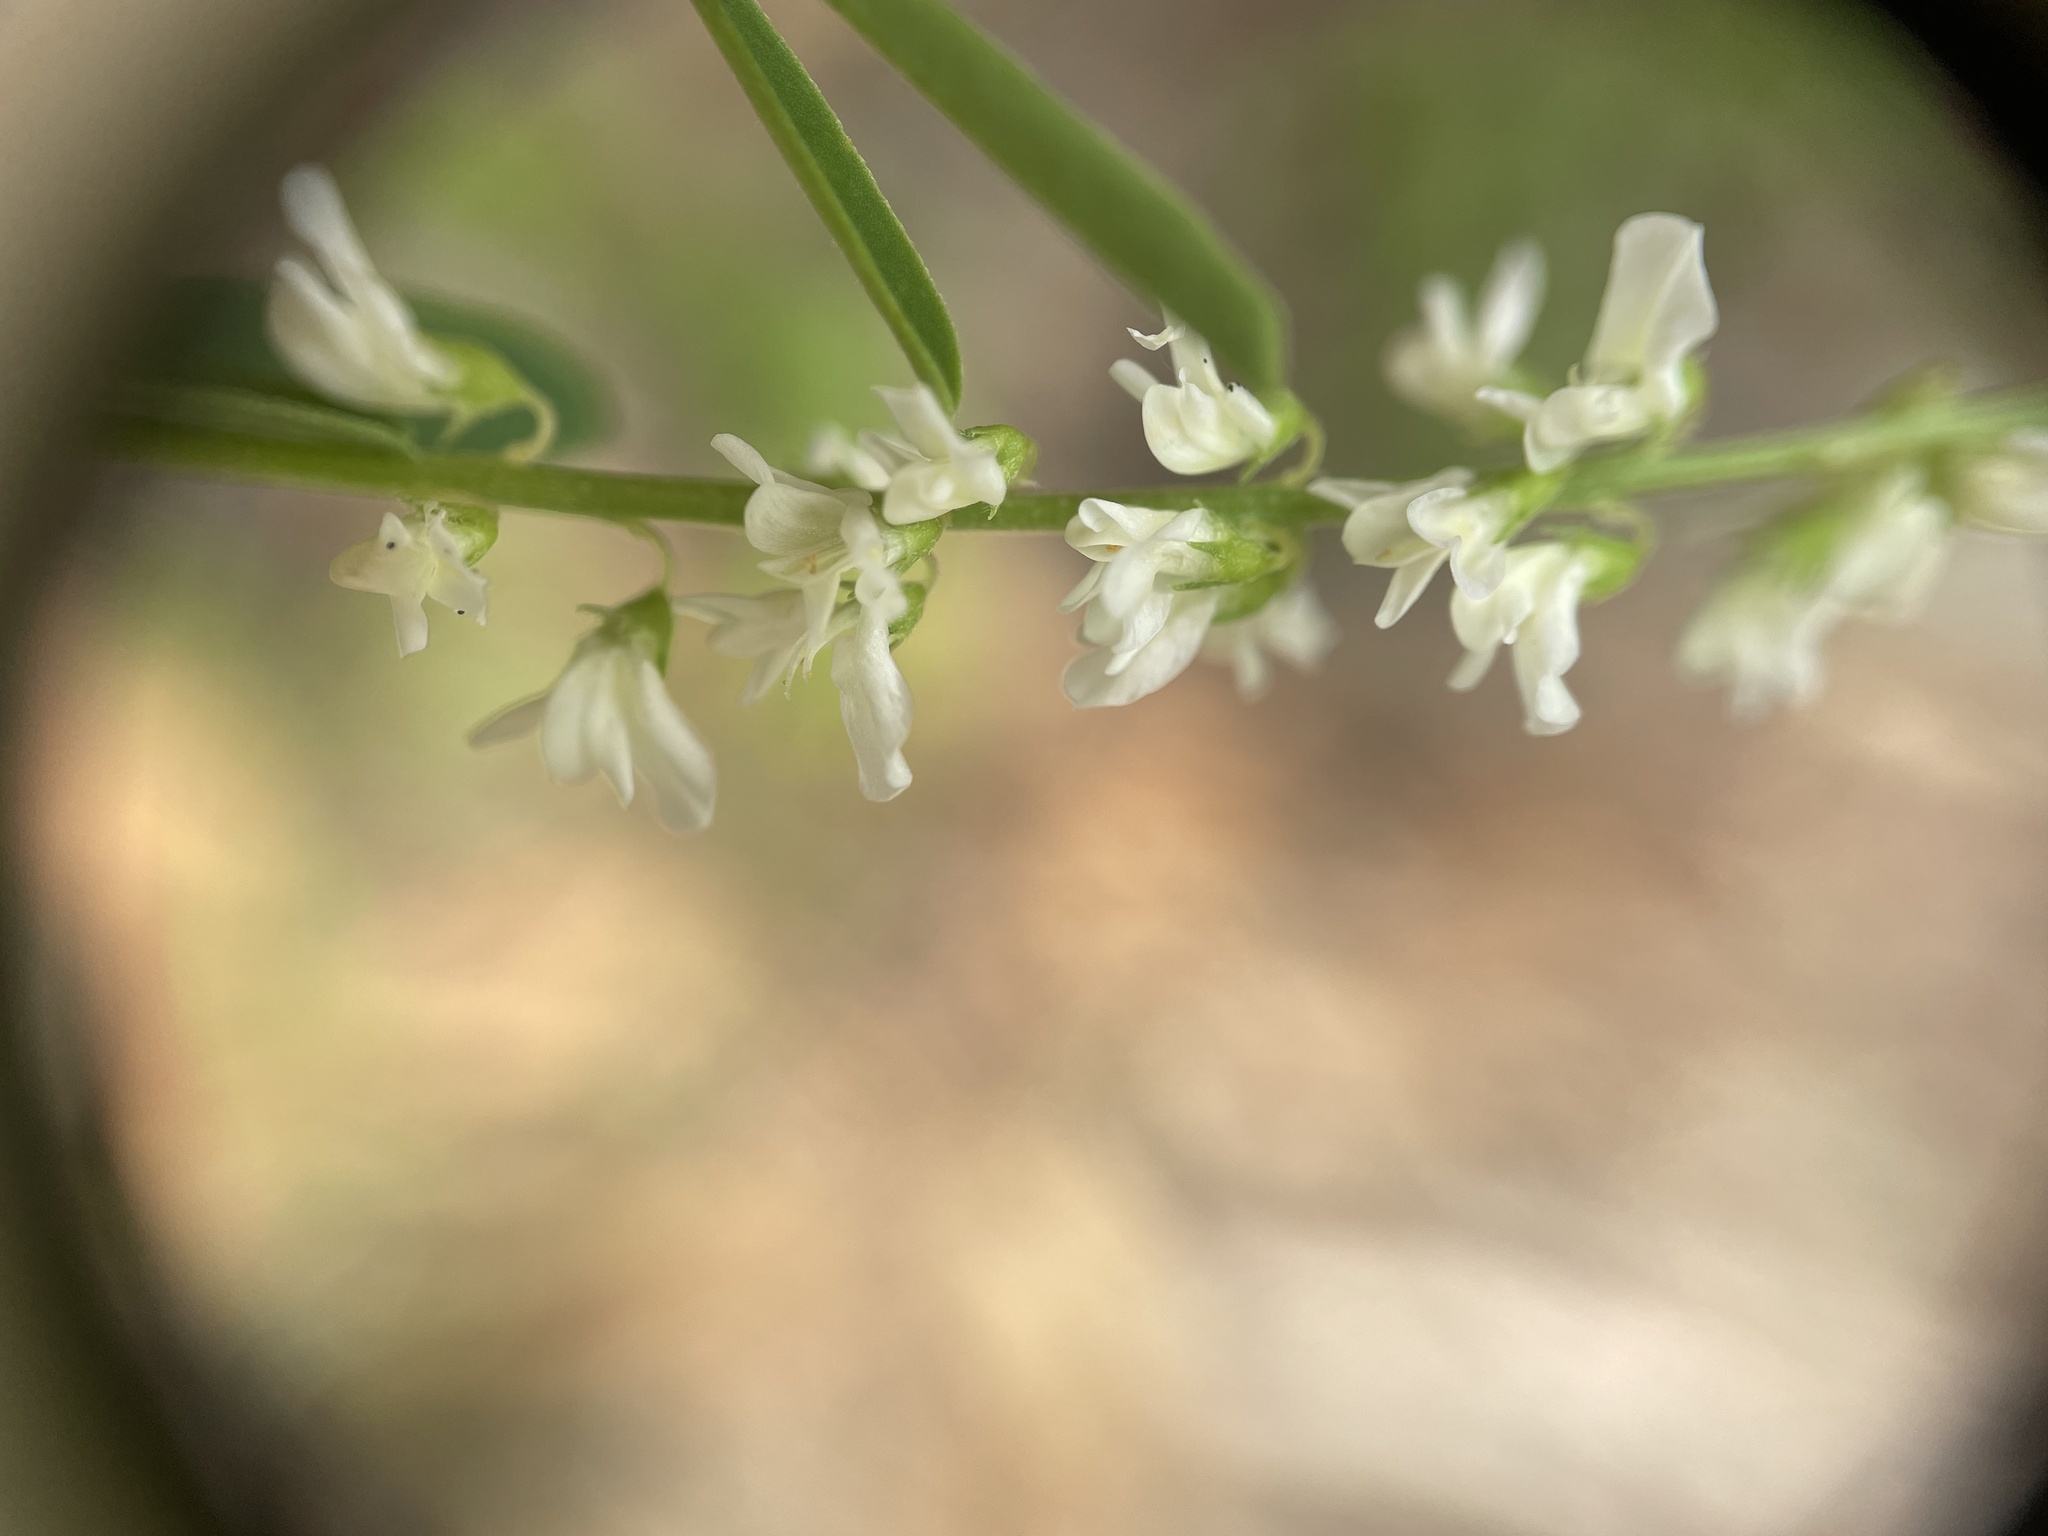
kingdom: Plantae
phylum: Tracheophyta
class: Magnoliopsida
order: Fabales
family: Fabaceae
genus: Melilotus
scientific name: Melilotus albus
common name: White melilot
